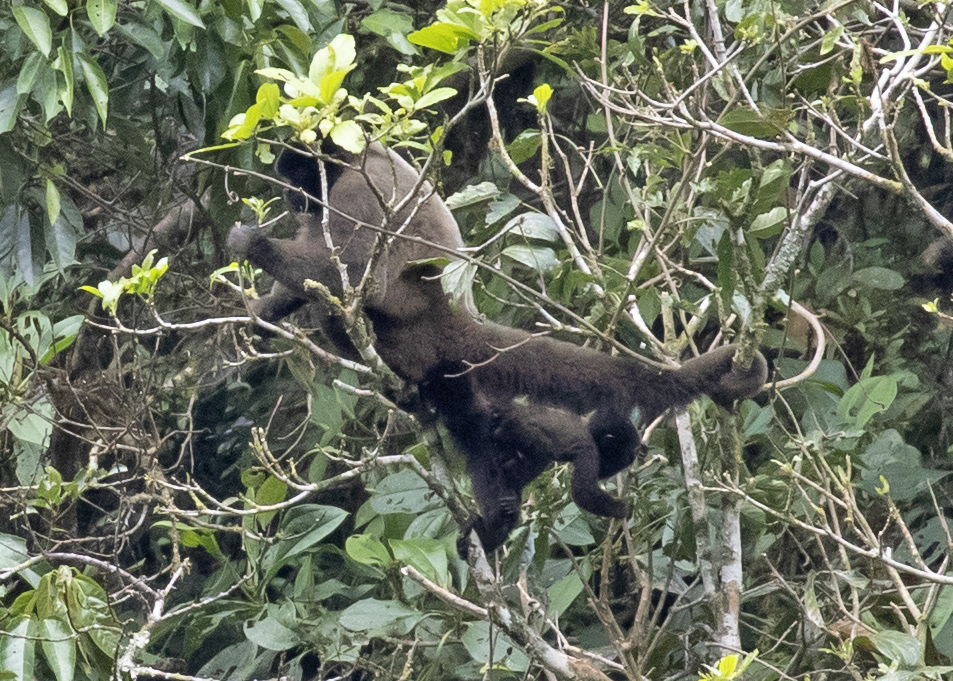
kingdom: Animalia
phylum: Chordata
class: Mammalia
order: Primates
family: Atelidae
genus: Lagothrix
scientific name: Lagothrix lagothricha
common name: Brown woolly monkey
